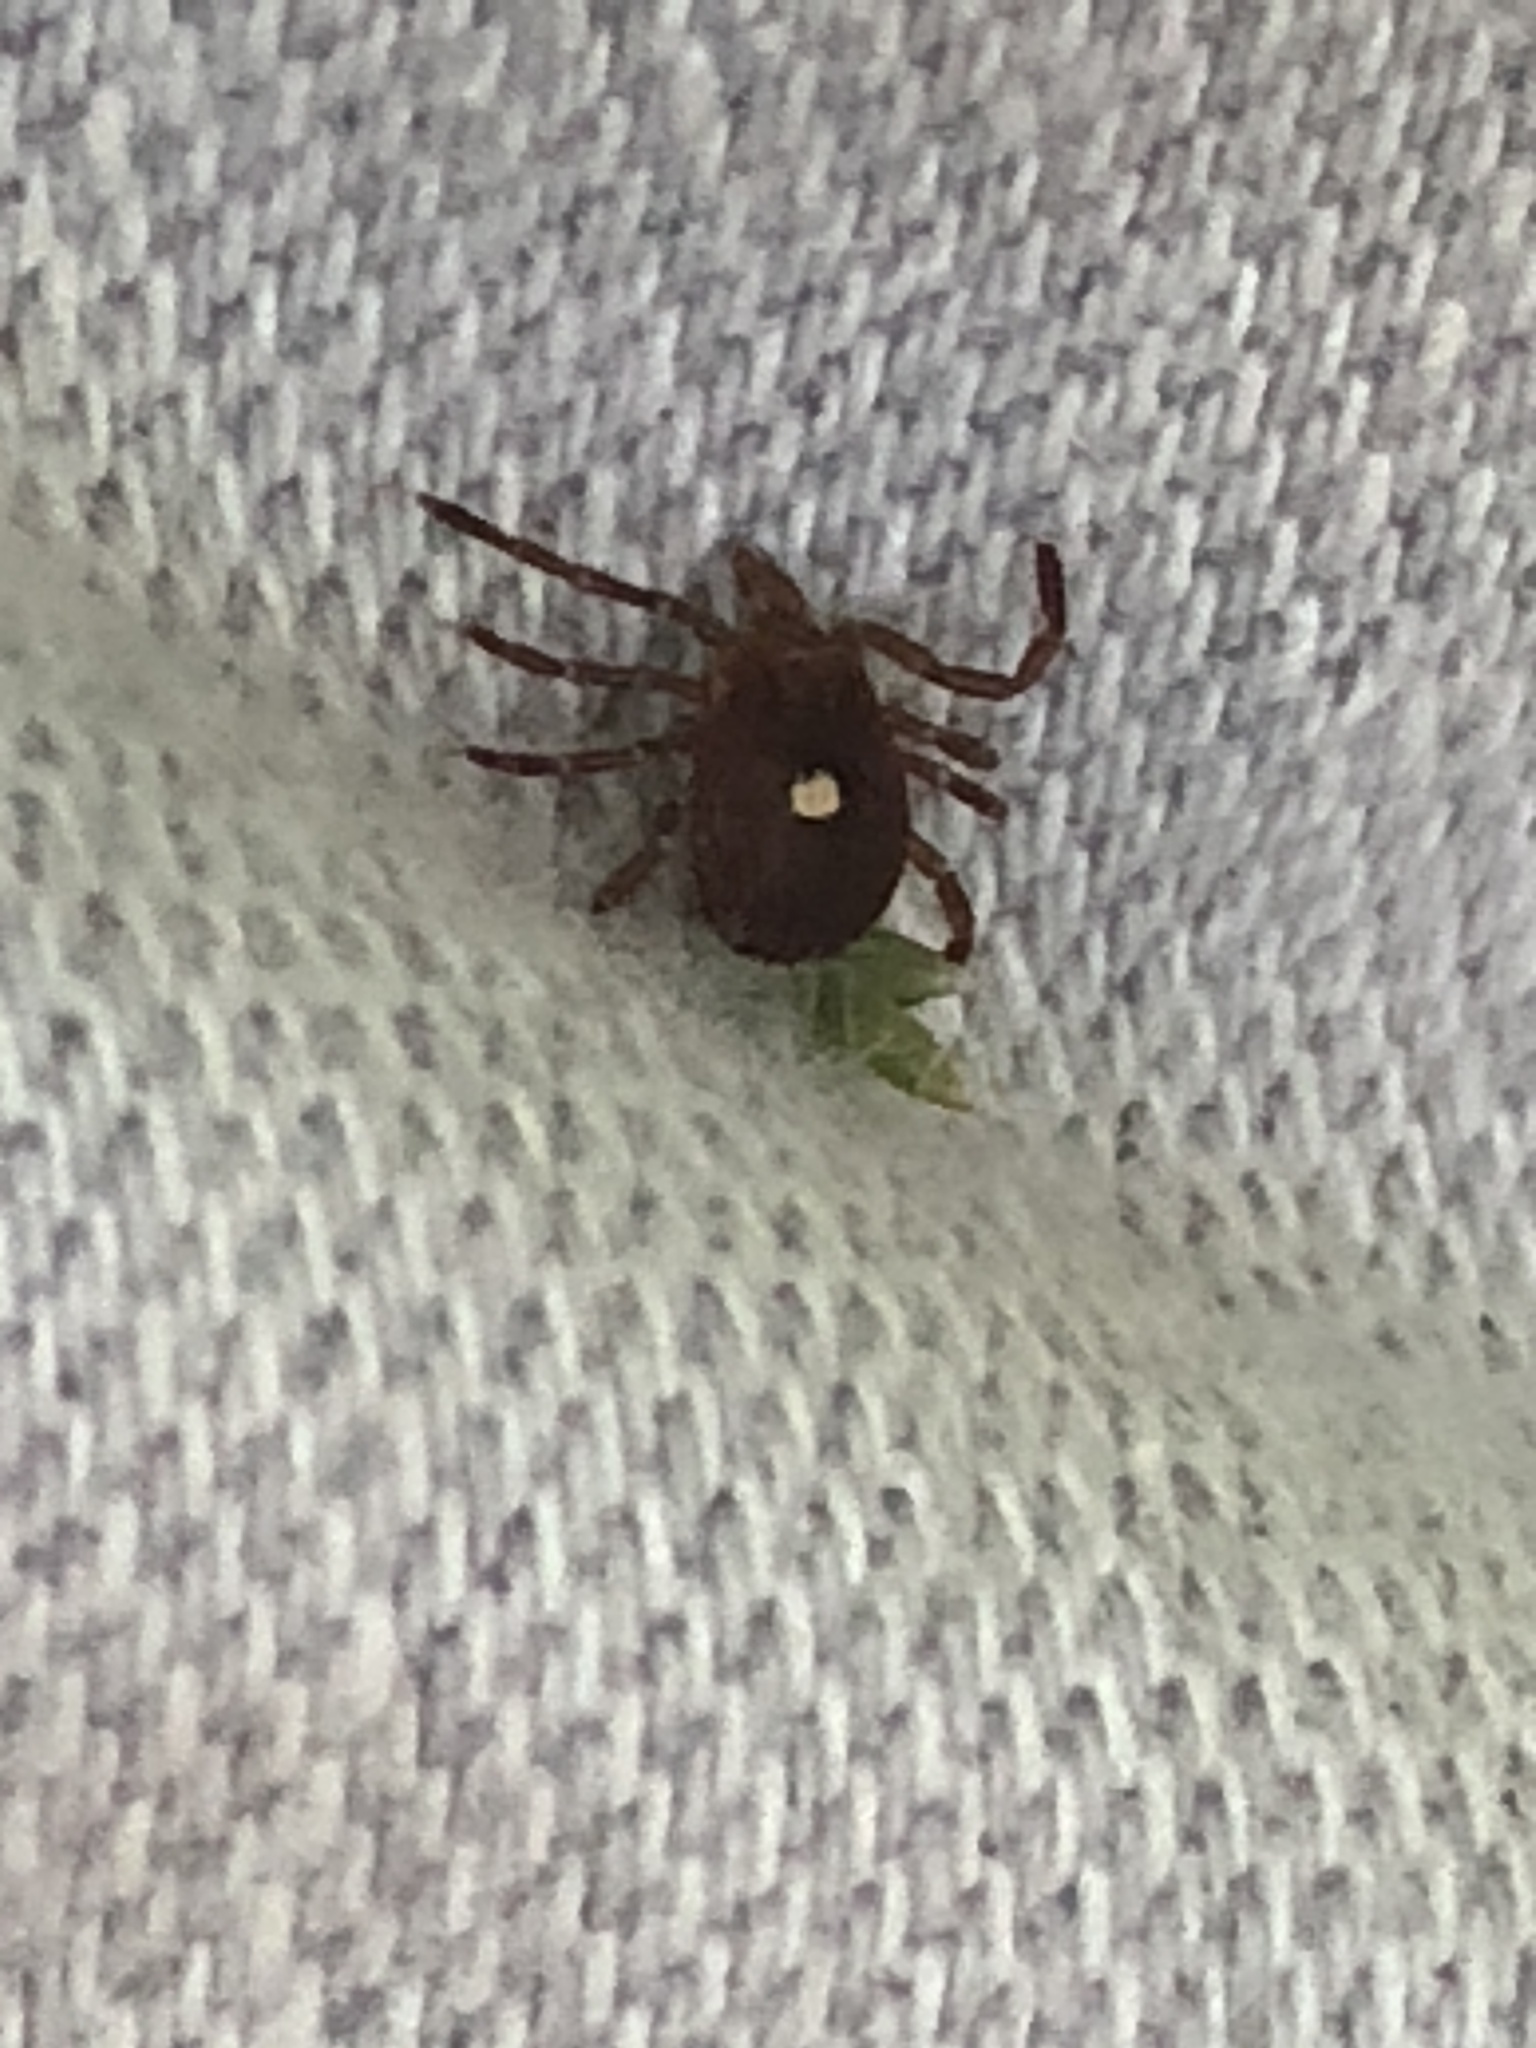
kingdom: Animalia
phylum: Arthropoda
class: Arachnida
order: Ixodida
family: Ixodidae
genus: Amblyomma
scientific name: Amblyomma americanum
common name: Lone star tick
